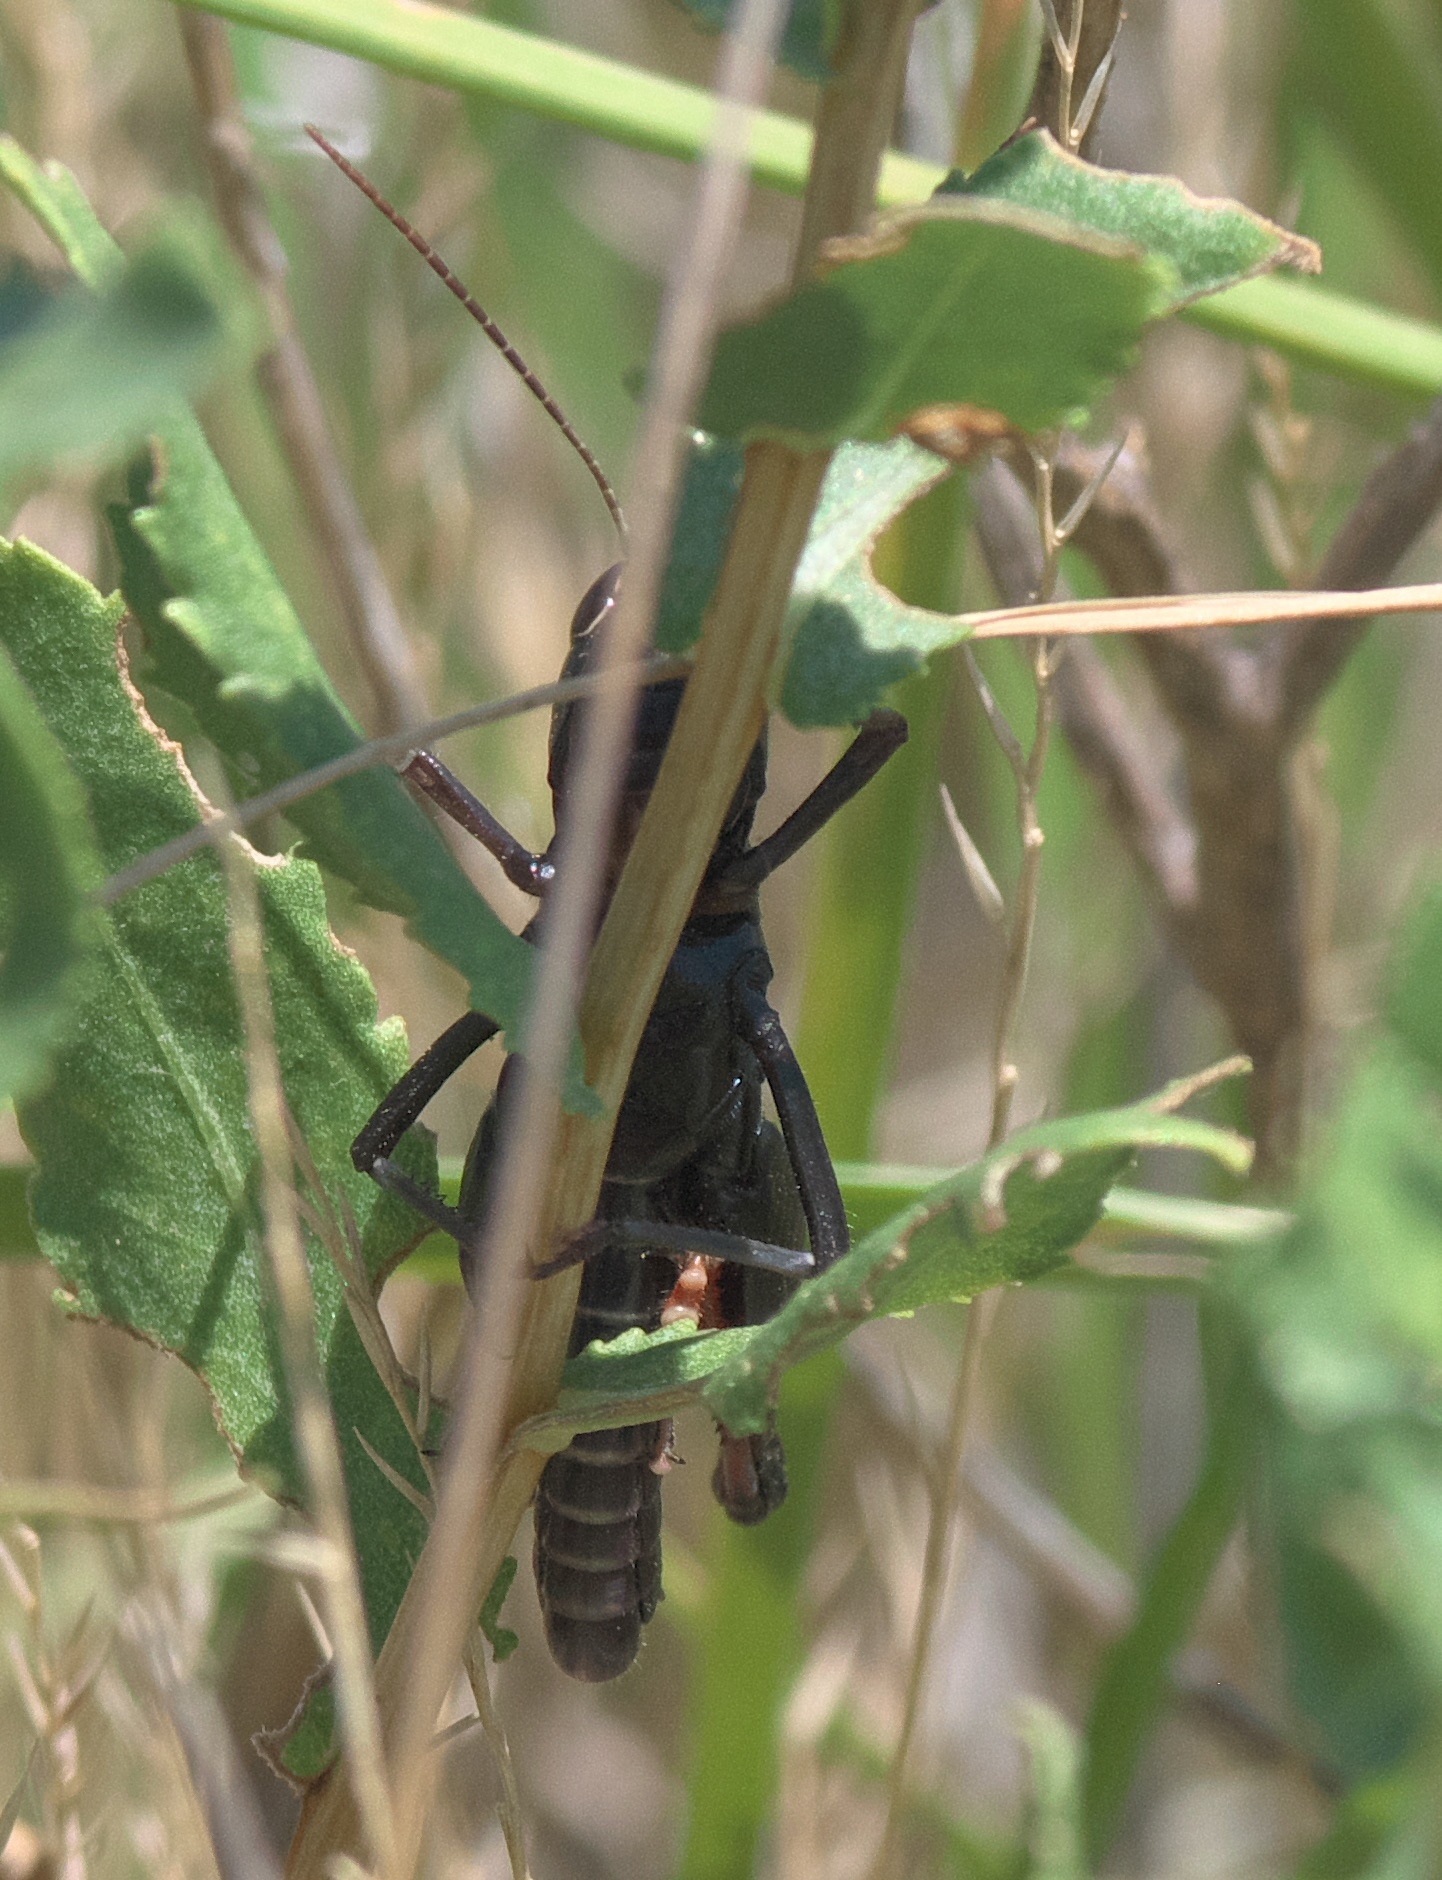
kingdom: Animalia
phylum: Arthropoda
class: Insecta
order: Orthoptera
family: Acrididae
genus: Boopedon
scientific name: Boopedon nubilum
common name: Ebony grasshopper
